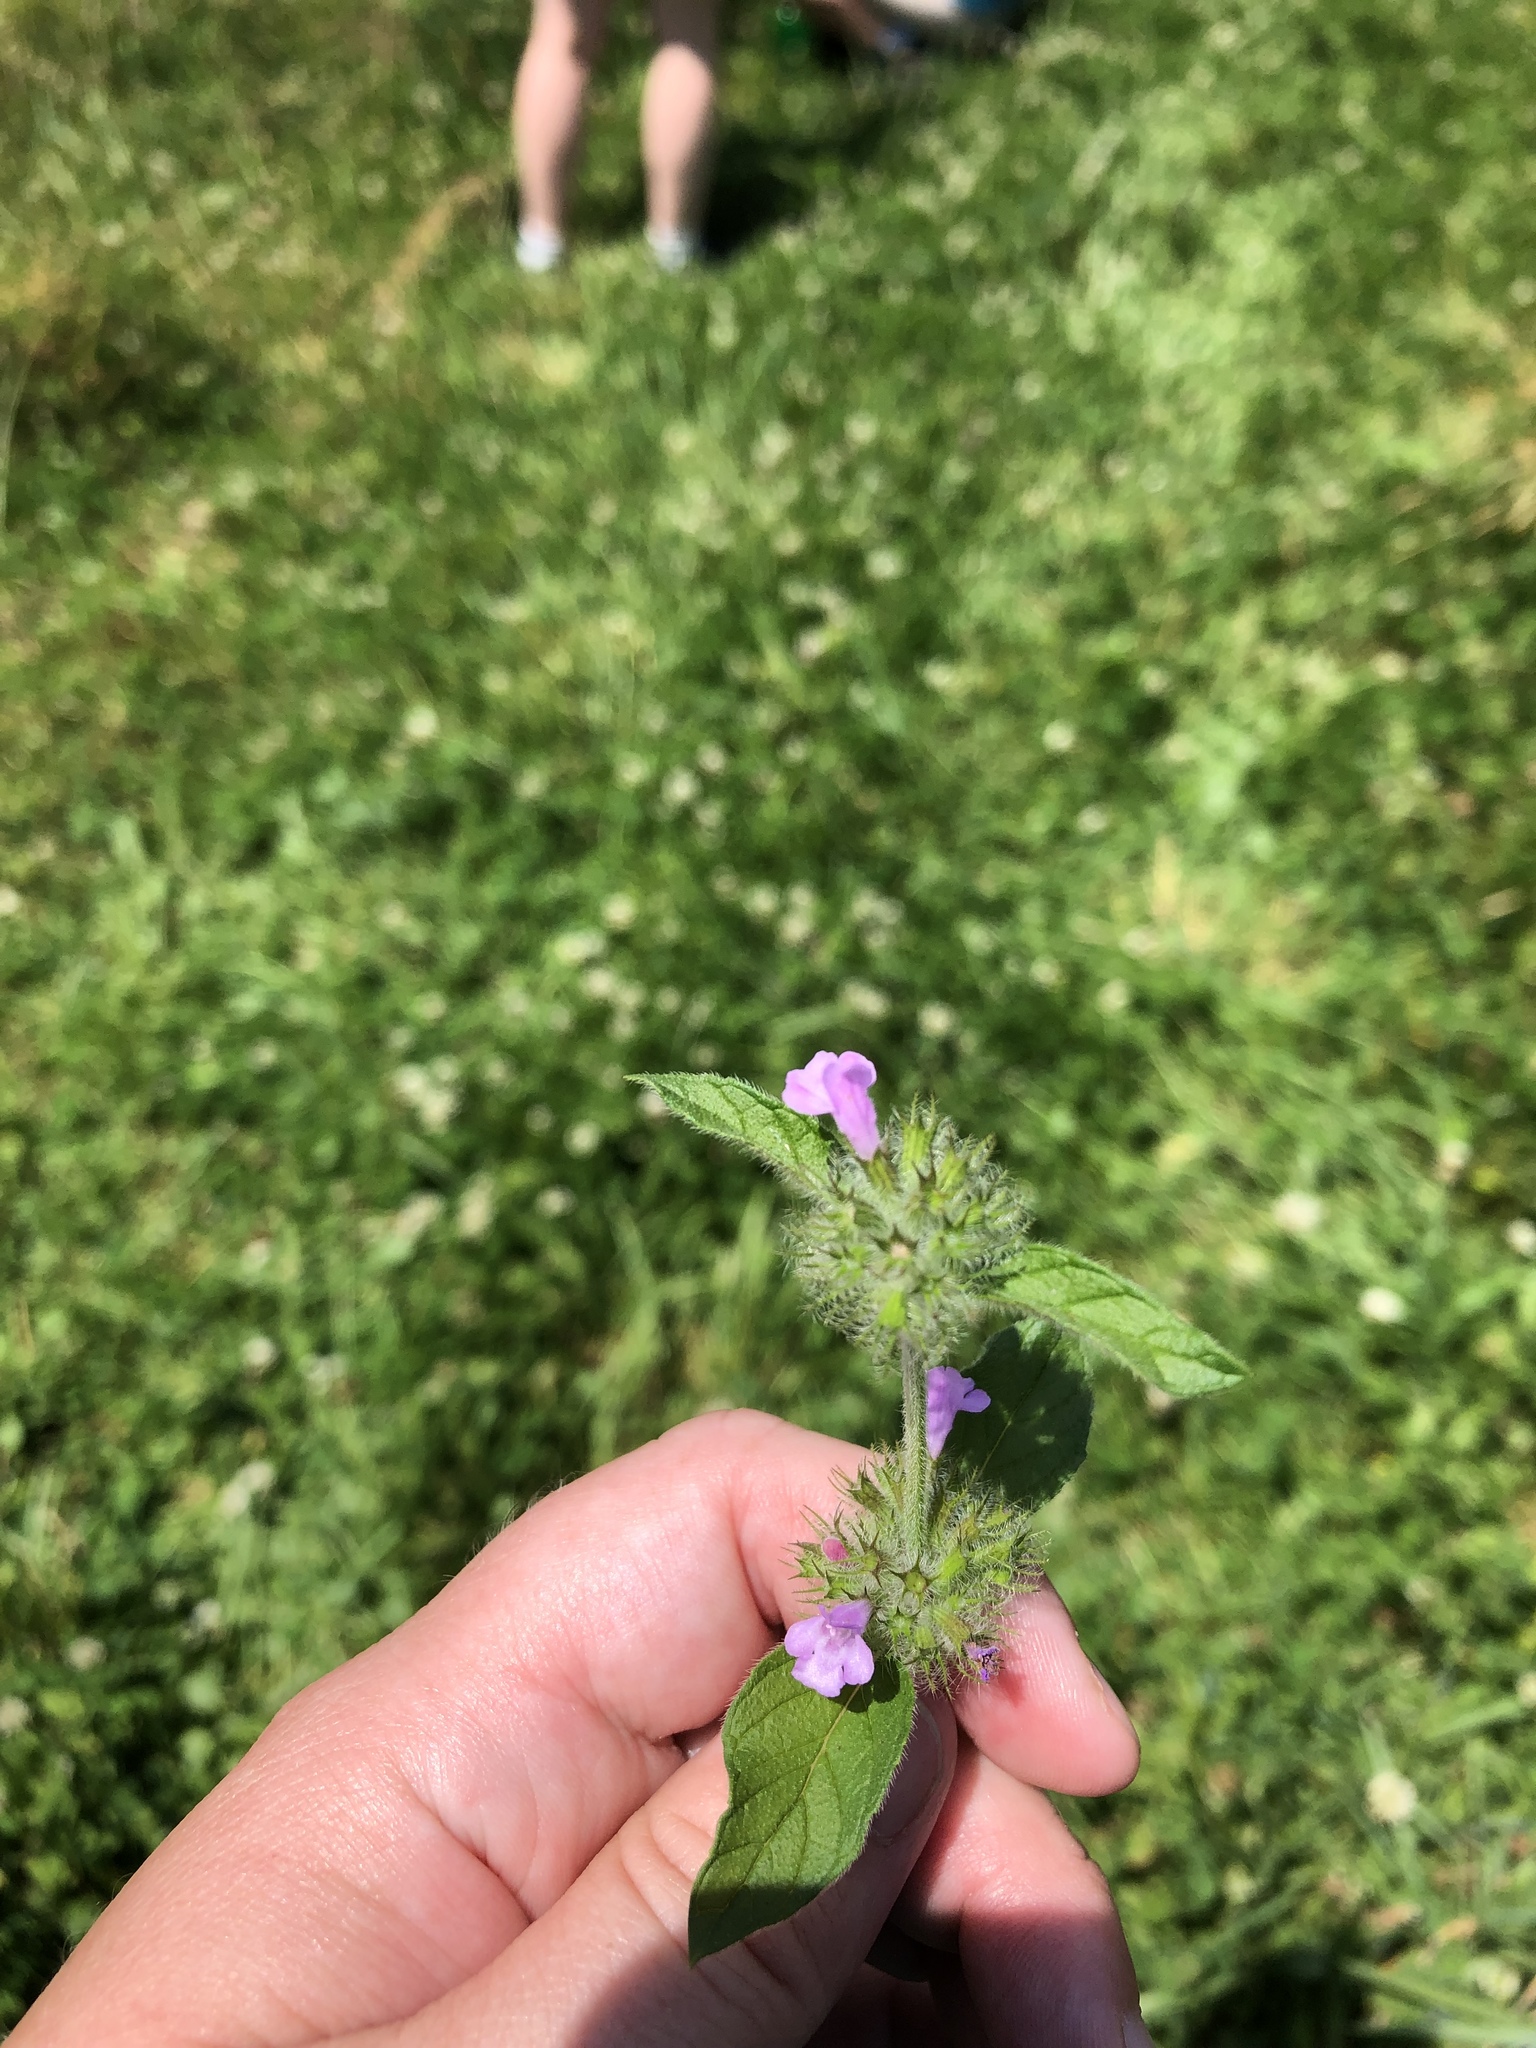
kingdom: Plantae
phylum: Tracheophyta
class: Magnoliopsida
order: Lamiales
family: Lamiaceae
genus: Clinopodium
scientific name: Clinopodium vulgare
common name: Wild basil
